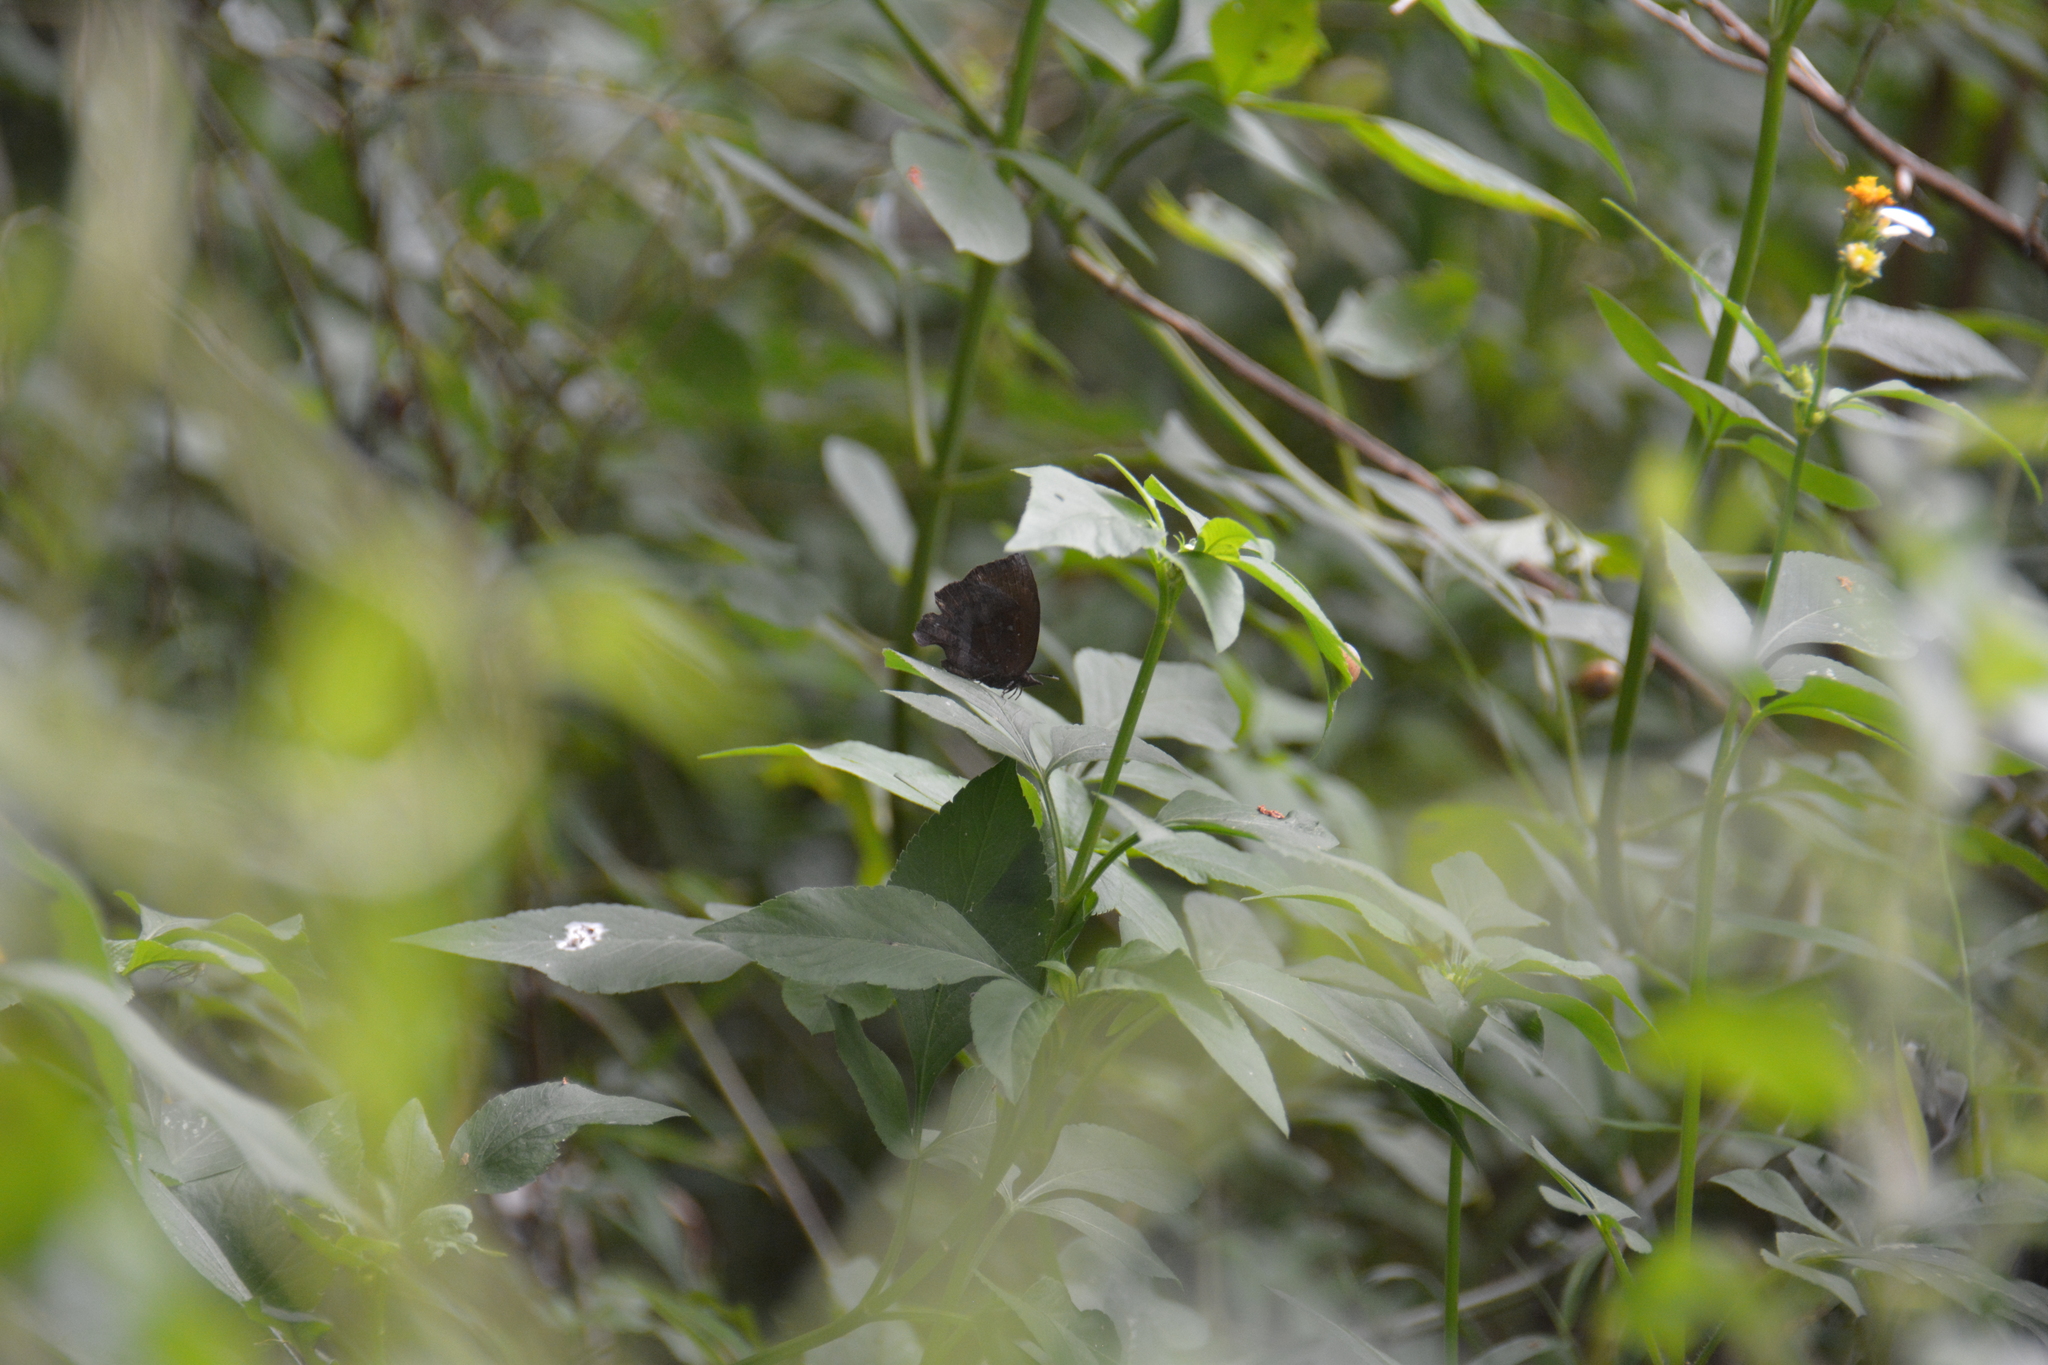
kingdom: Animalia
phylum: Arthropoda
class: Insecta
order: Lepidoptera
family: Lycaenidae
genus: Mahathala
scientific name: Mahathala ameria
